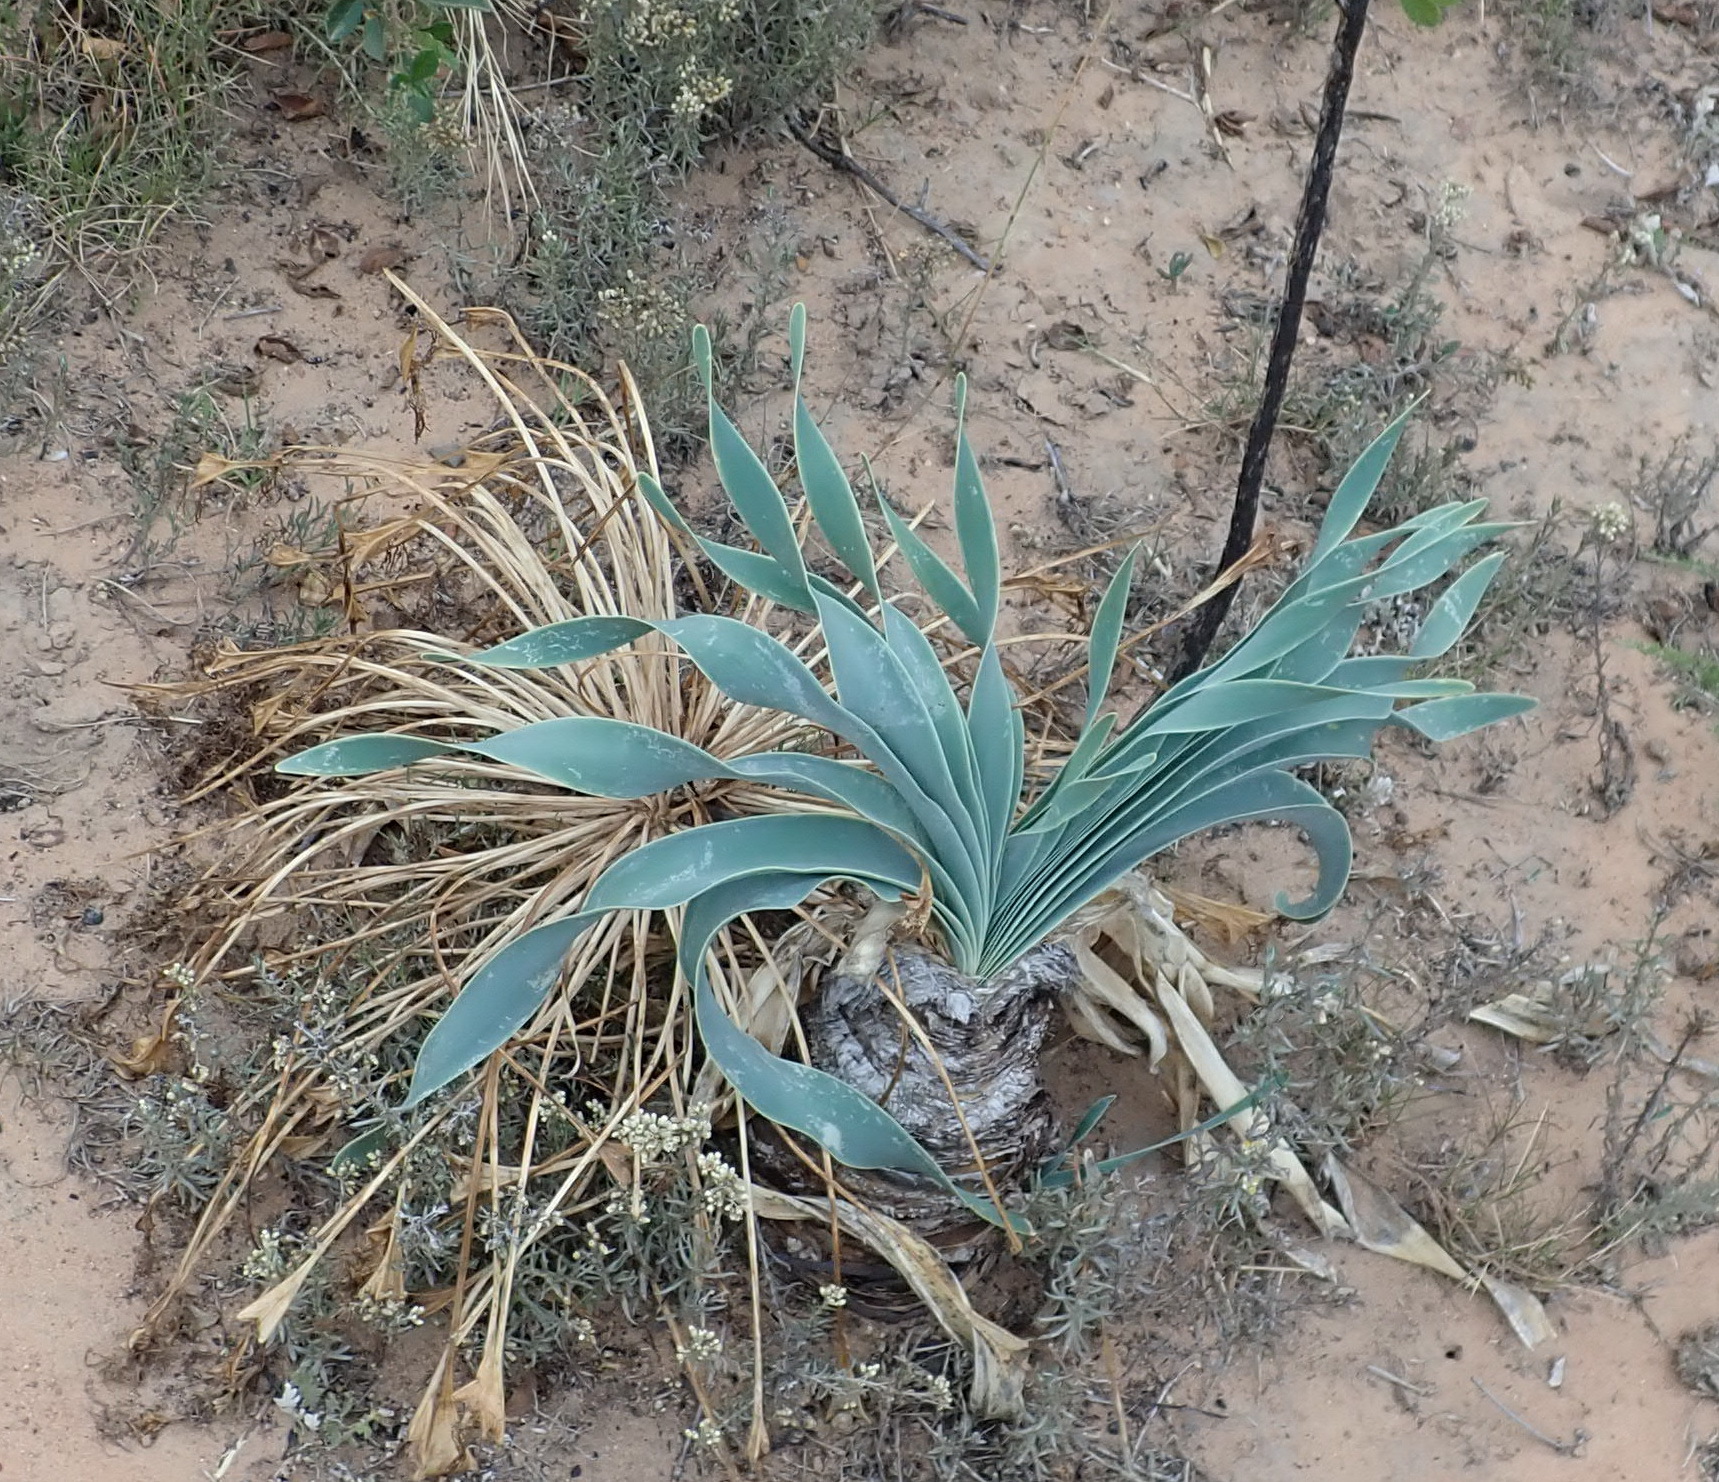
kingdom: Plantae
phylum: Tracheophyta
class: Liliopsida
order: Asparagales
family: Amaryllidaceae
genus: Boophone
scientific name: Boophone disticha
